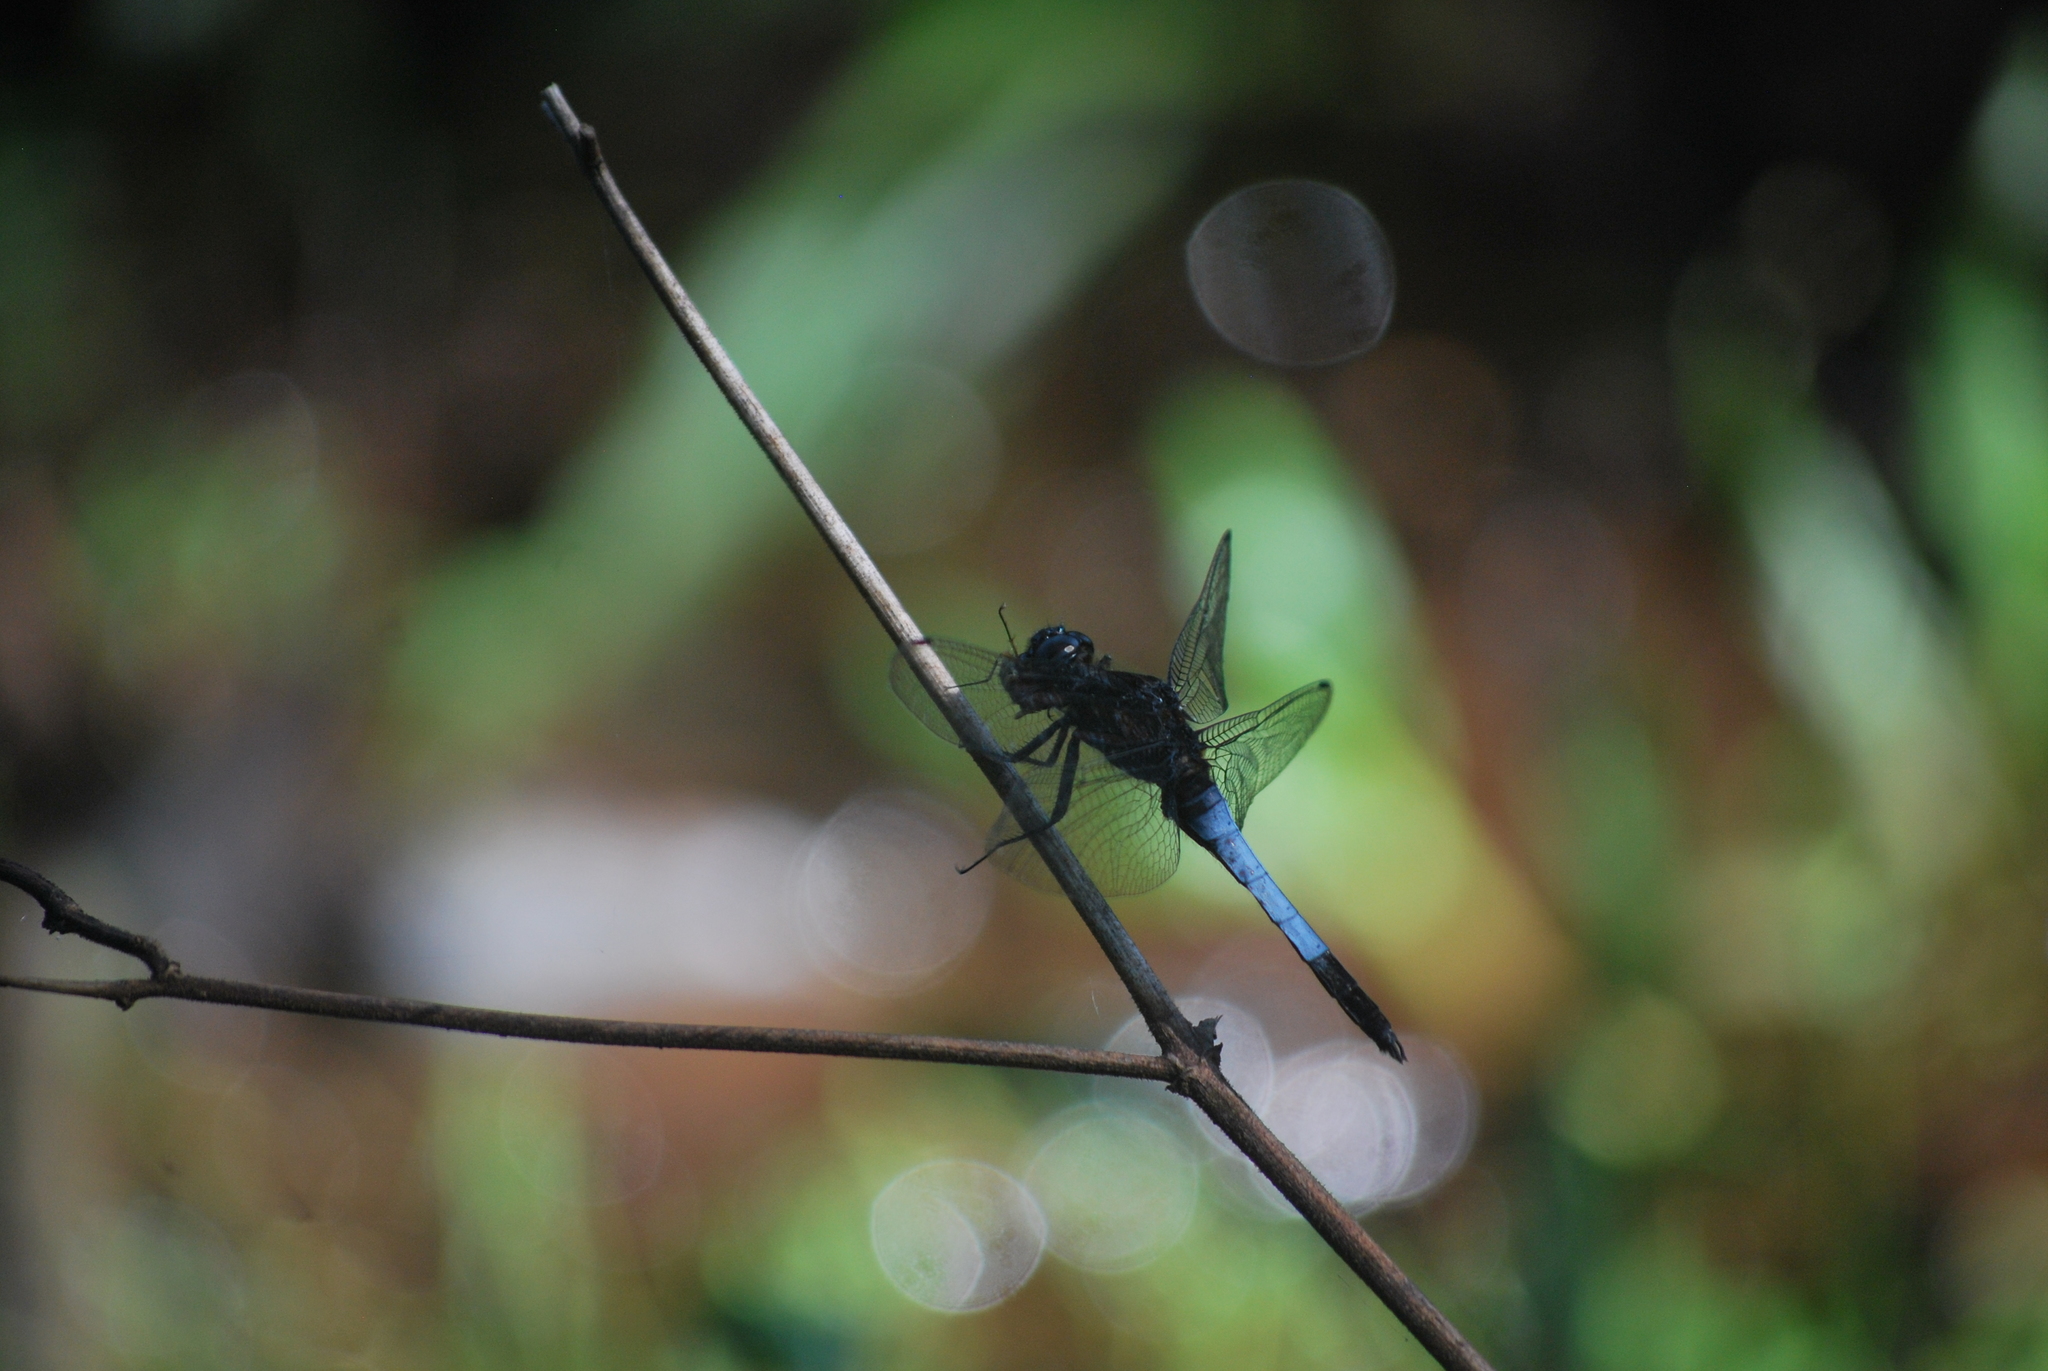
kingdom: Animalia
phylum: Arthropoda
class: Insecta
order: Odonata
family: Libellulidae
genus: Orthetrum
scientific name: Orthetrum triangulare
